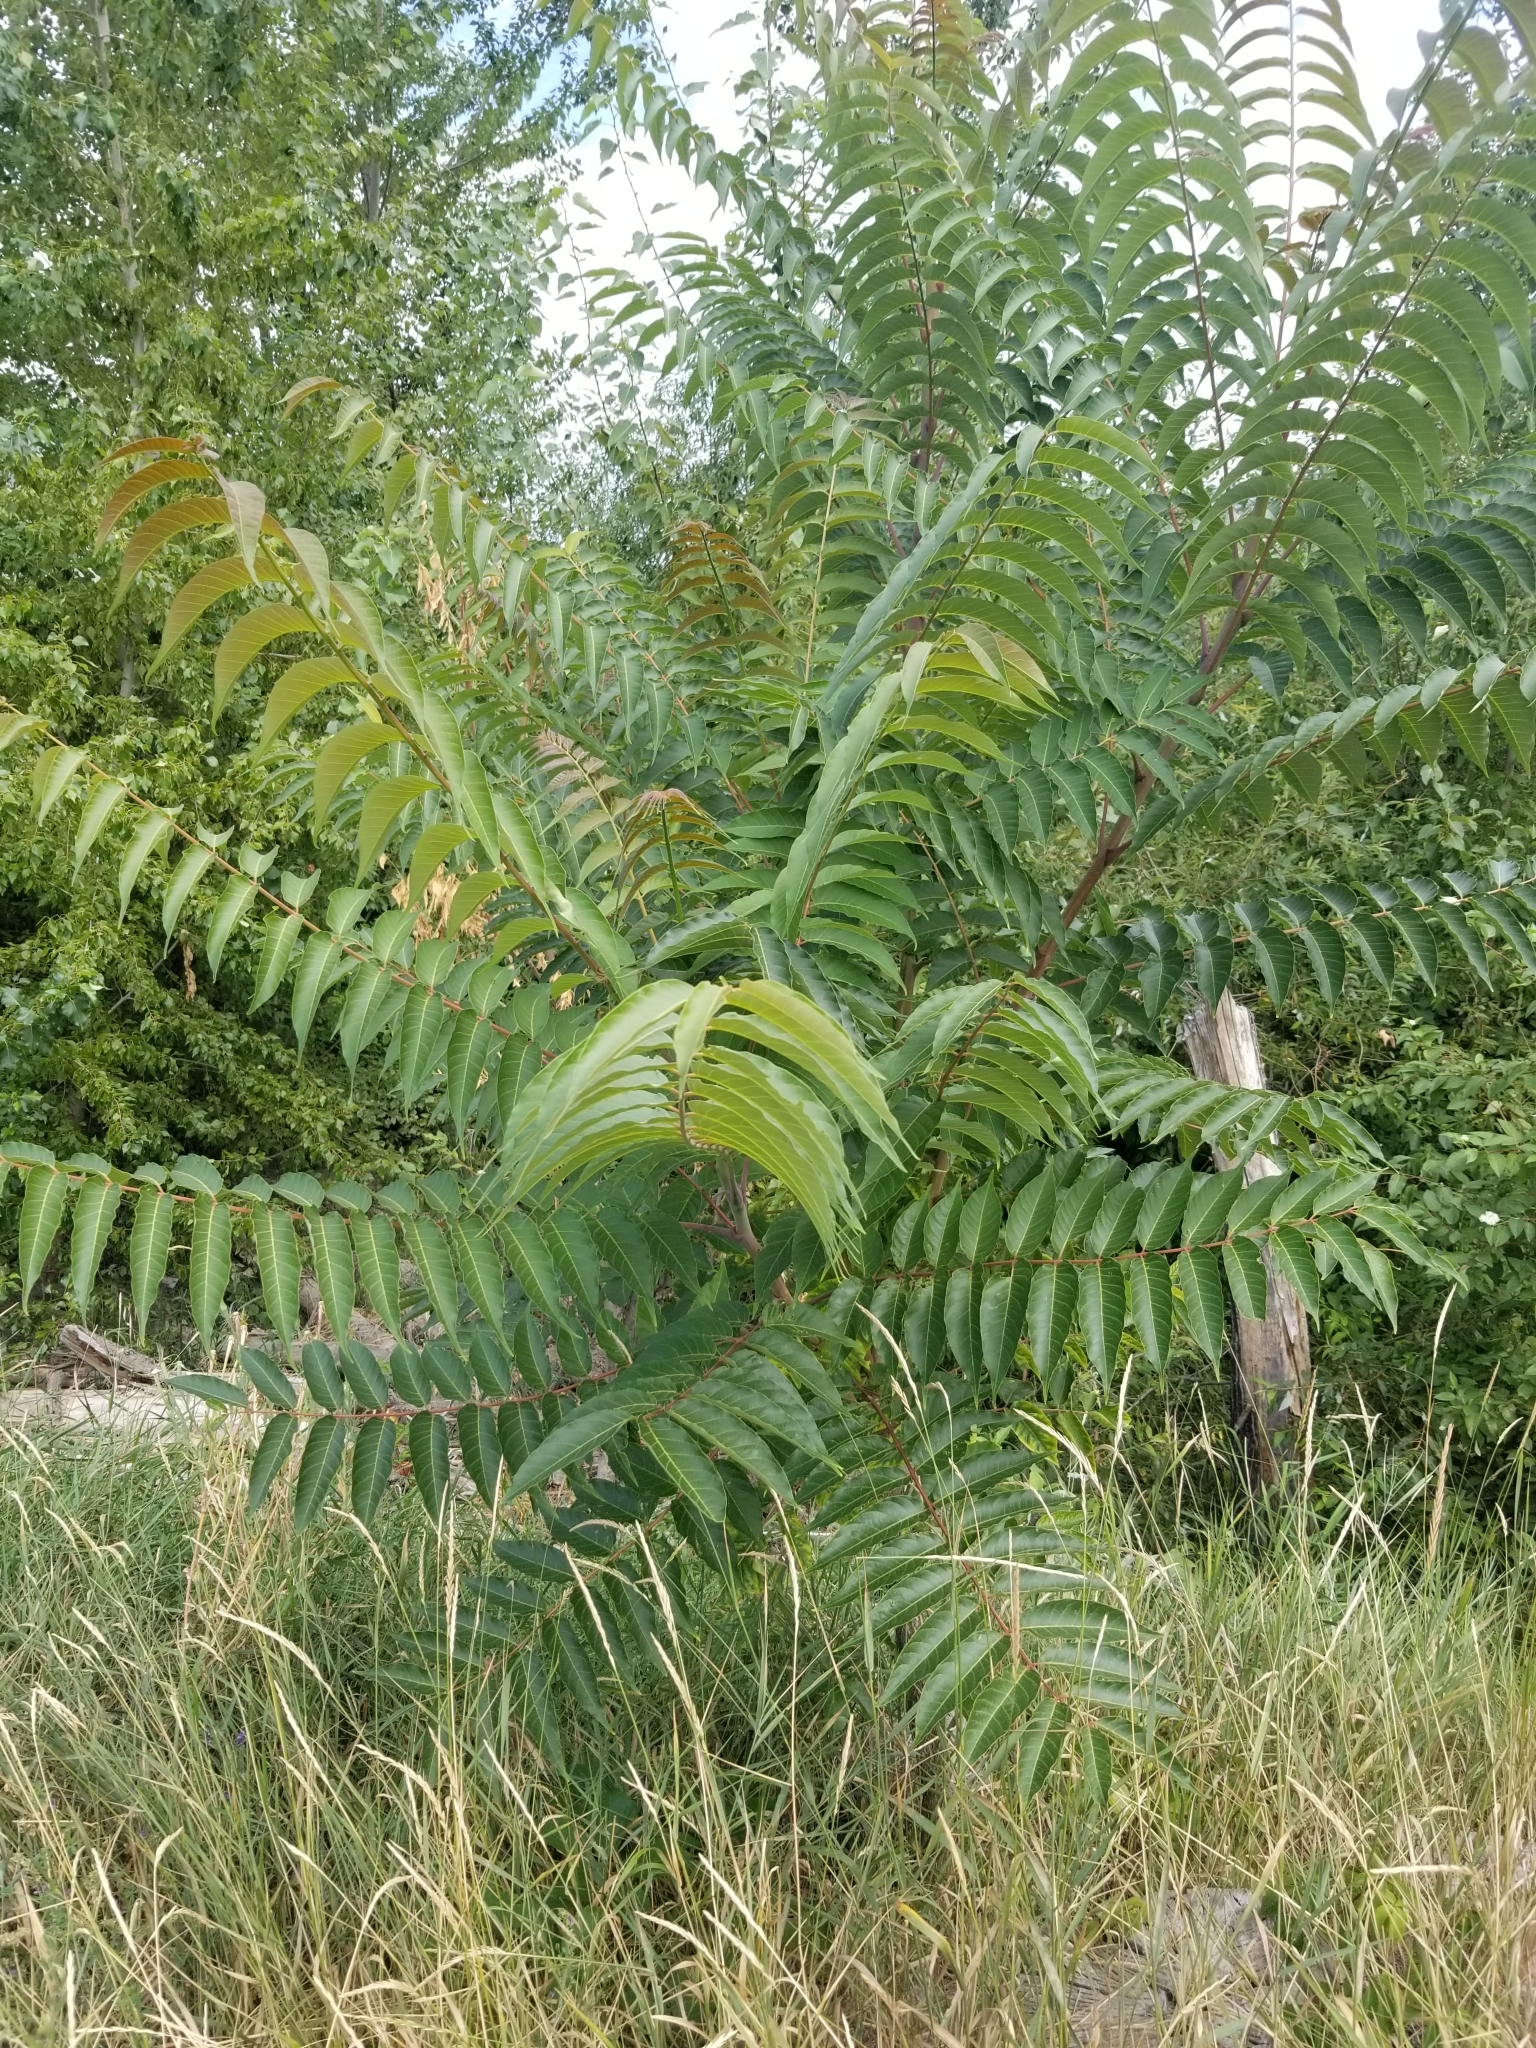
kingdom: Plantae
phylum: Tracheophyta
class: Magnoliopsida
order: Sapindales
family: Simaroubaceae
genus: Ailanthus
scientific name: Ailanthus altissima
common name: Tree-of-heaven
